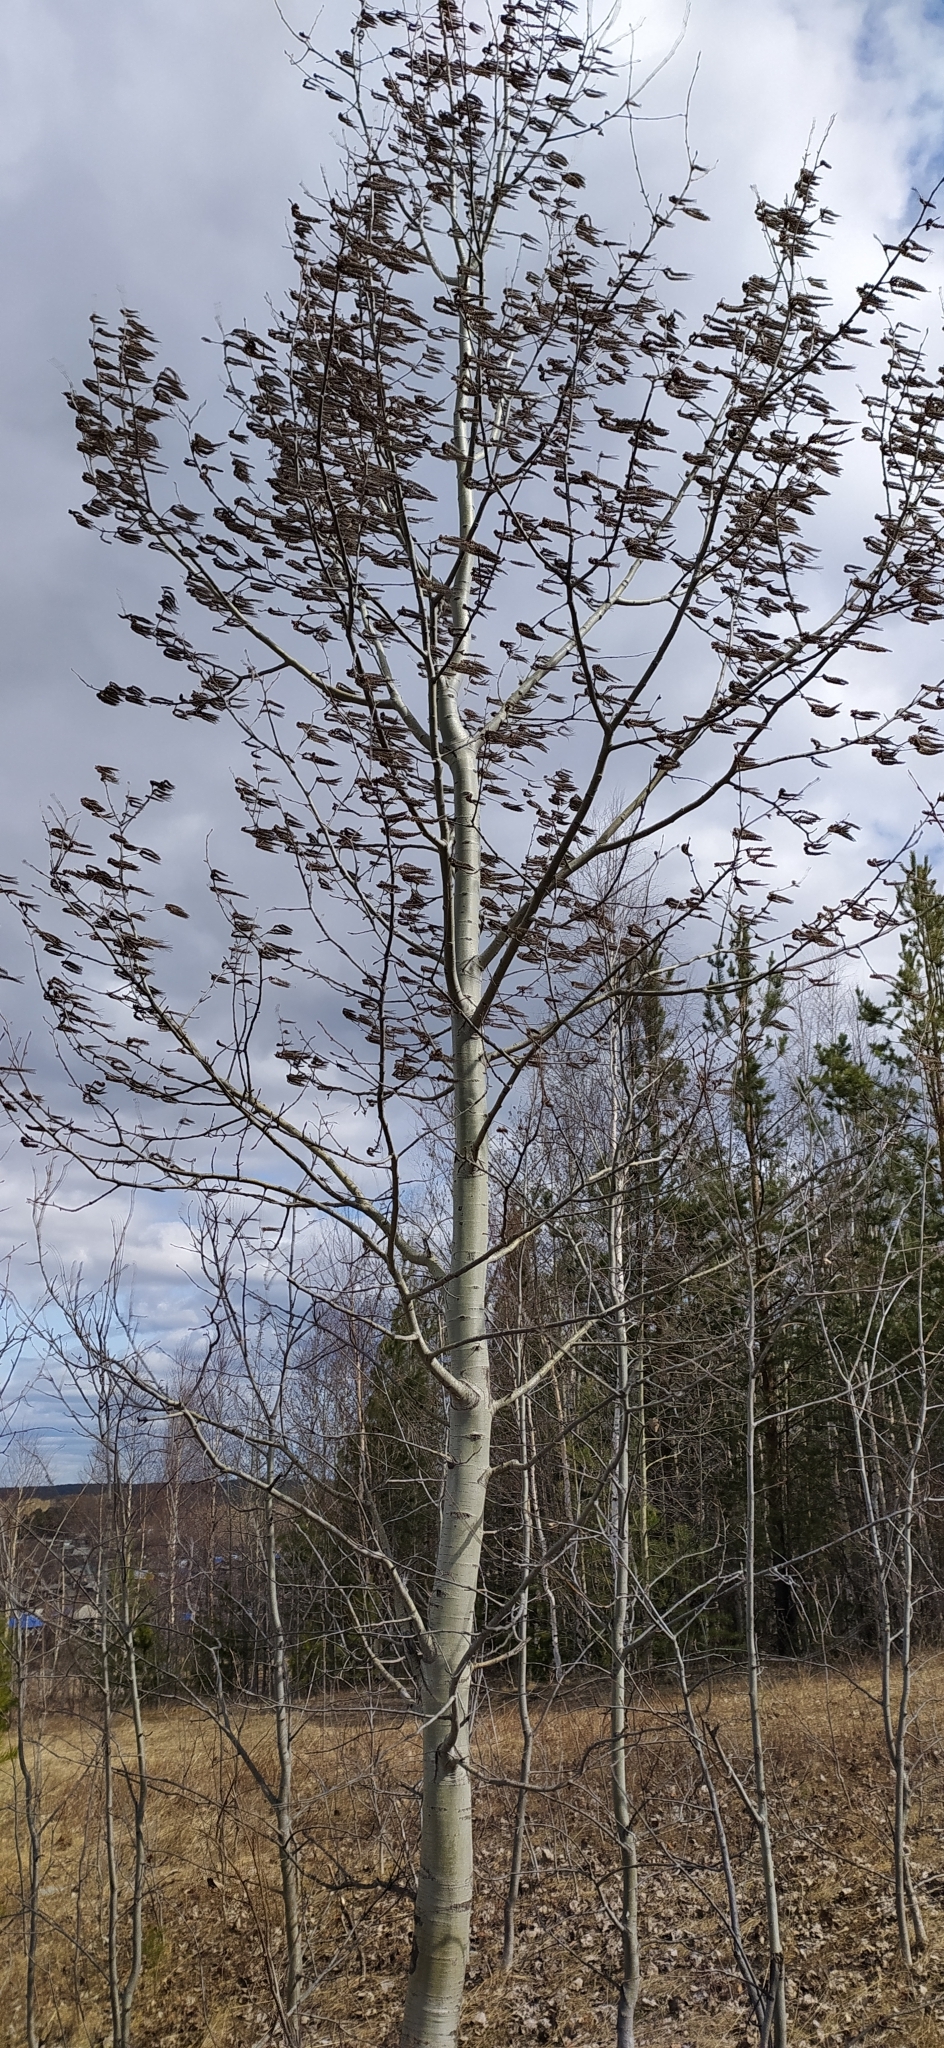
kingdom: Plantae
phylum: Tracheophyta
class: Magnoliopsida
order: Malpighiales
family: Salicaceae
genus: Populus
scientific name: Populus tremula
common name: European aspen
